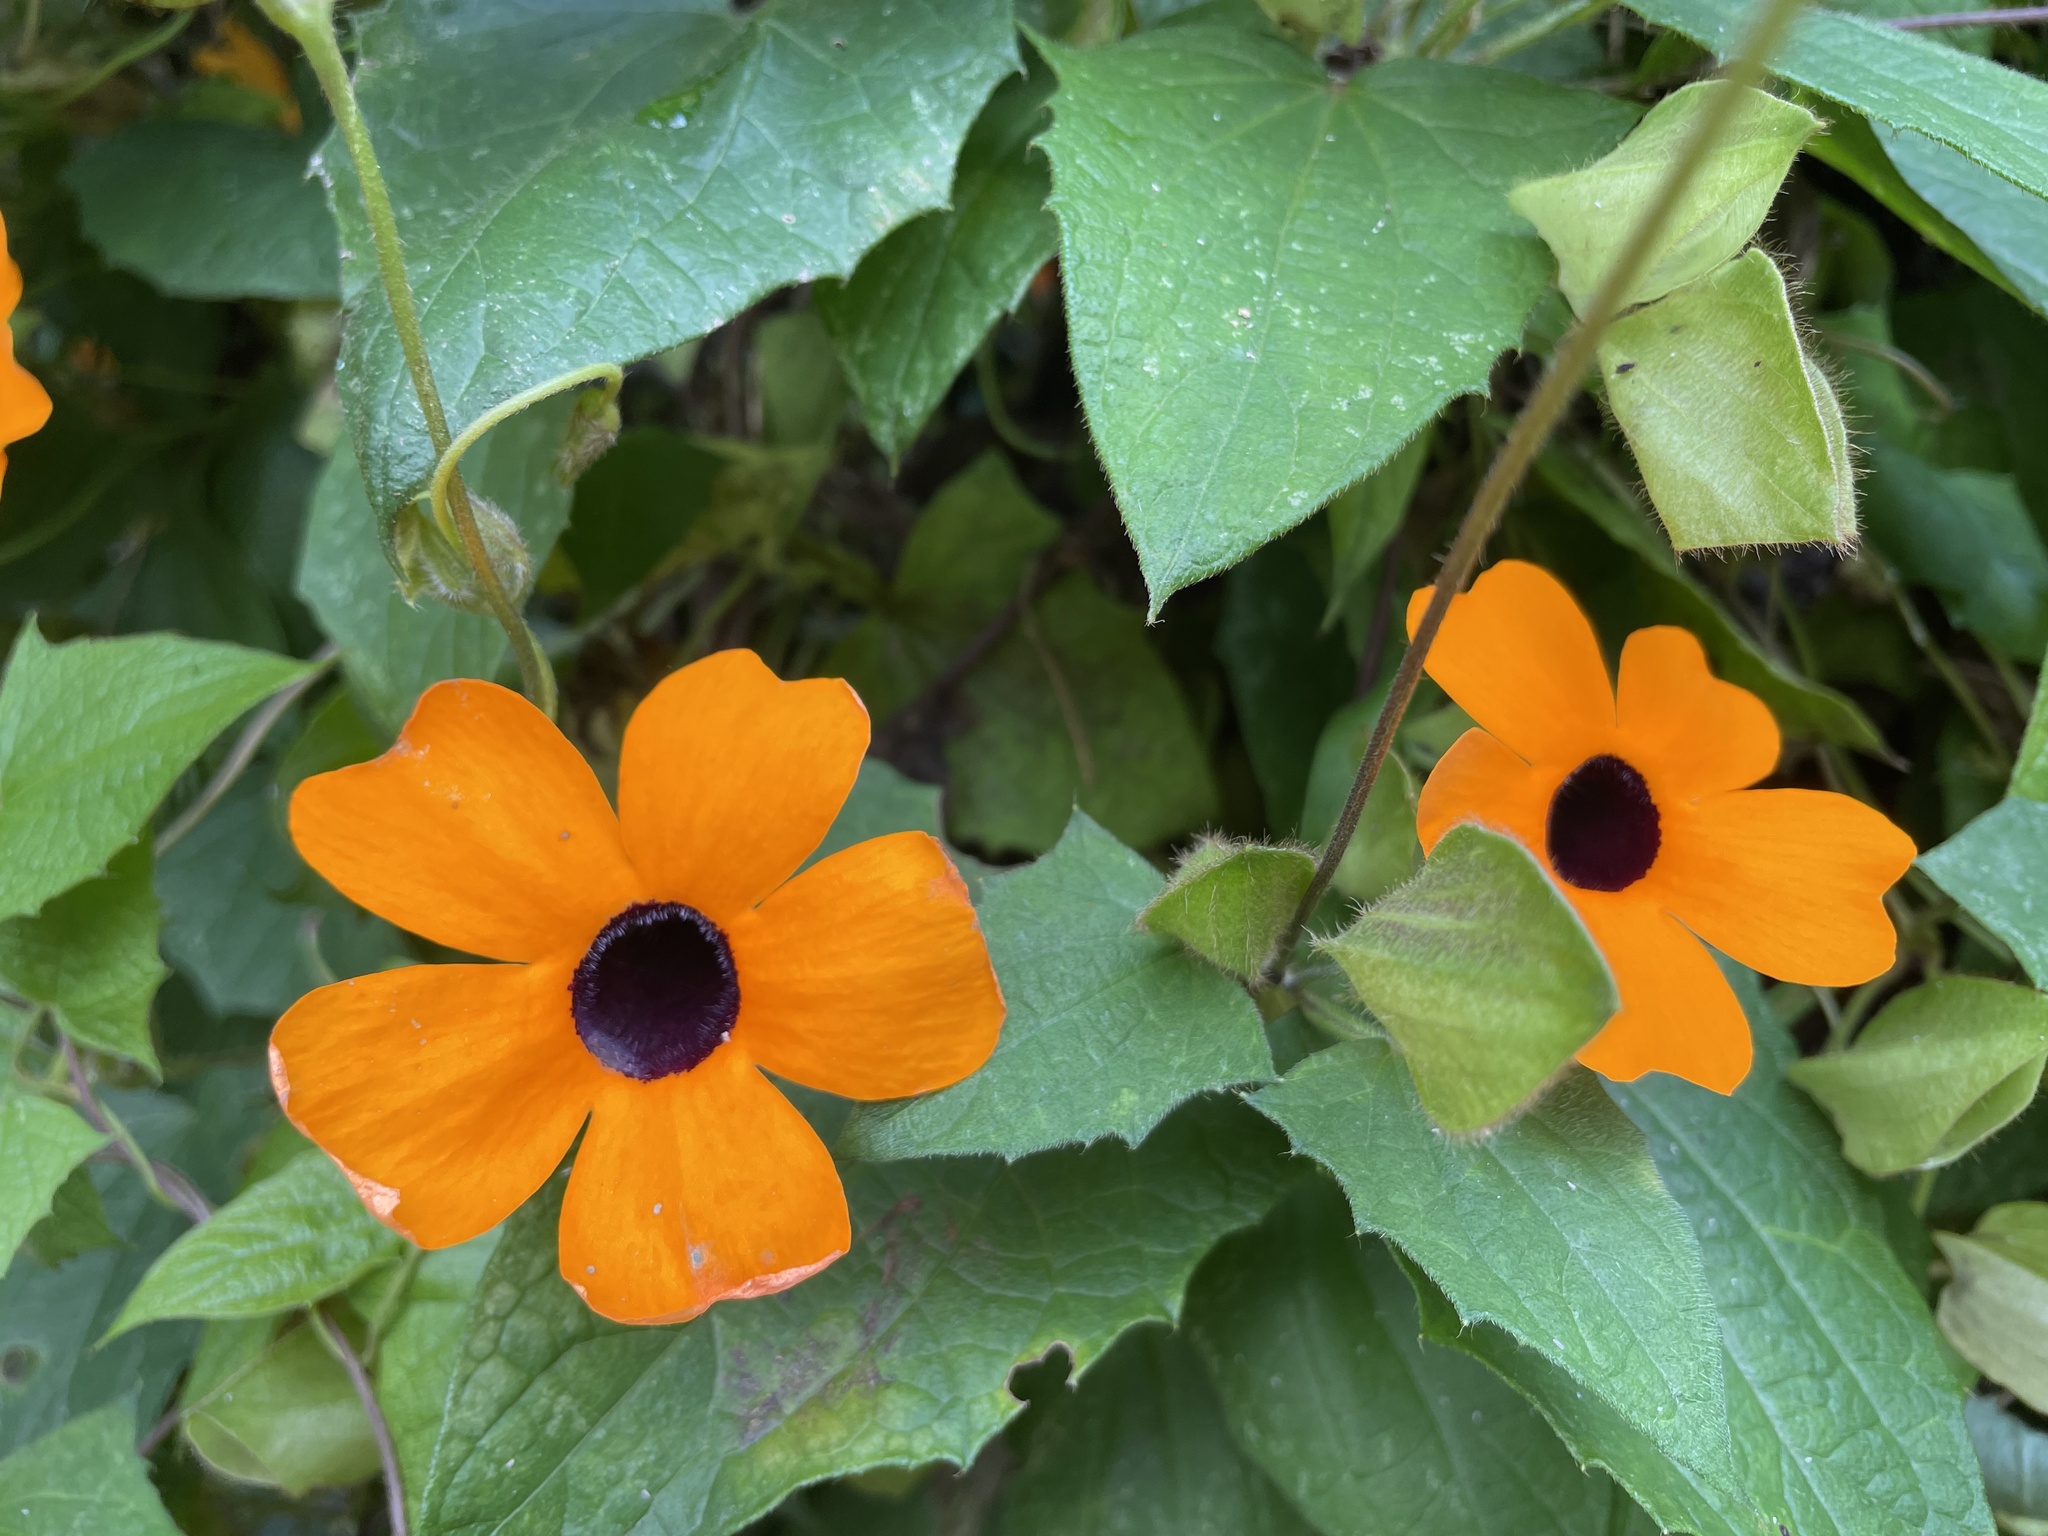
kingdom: Plantae
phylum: Tracheophyta
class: Magnoliopsida
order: Lamiales
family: Acanthaceae
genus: Thunbergia
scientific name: Thunbergia alata
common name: Blackeyed susan vine
